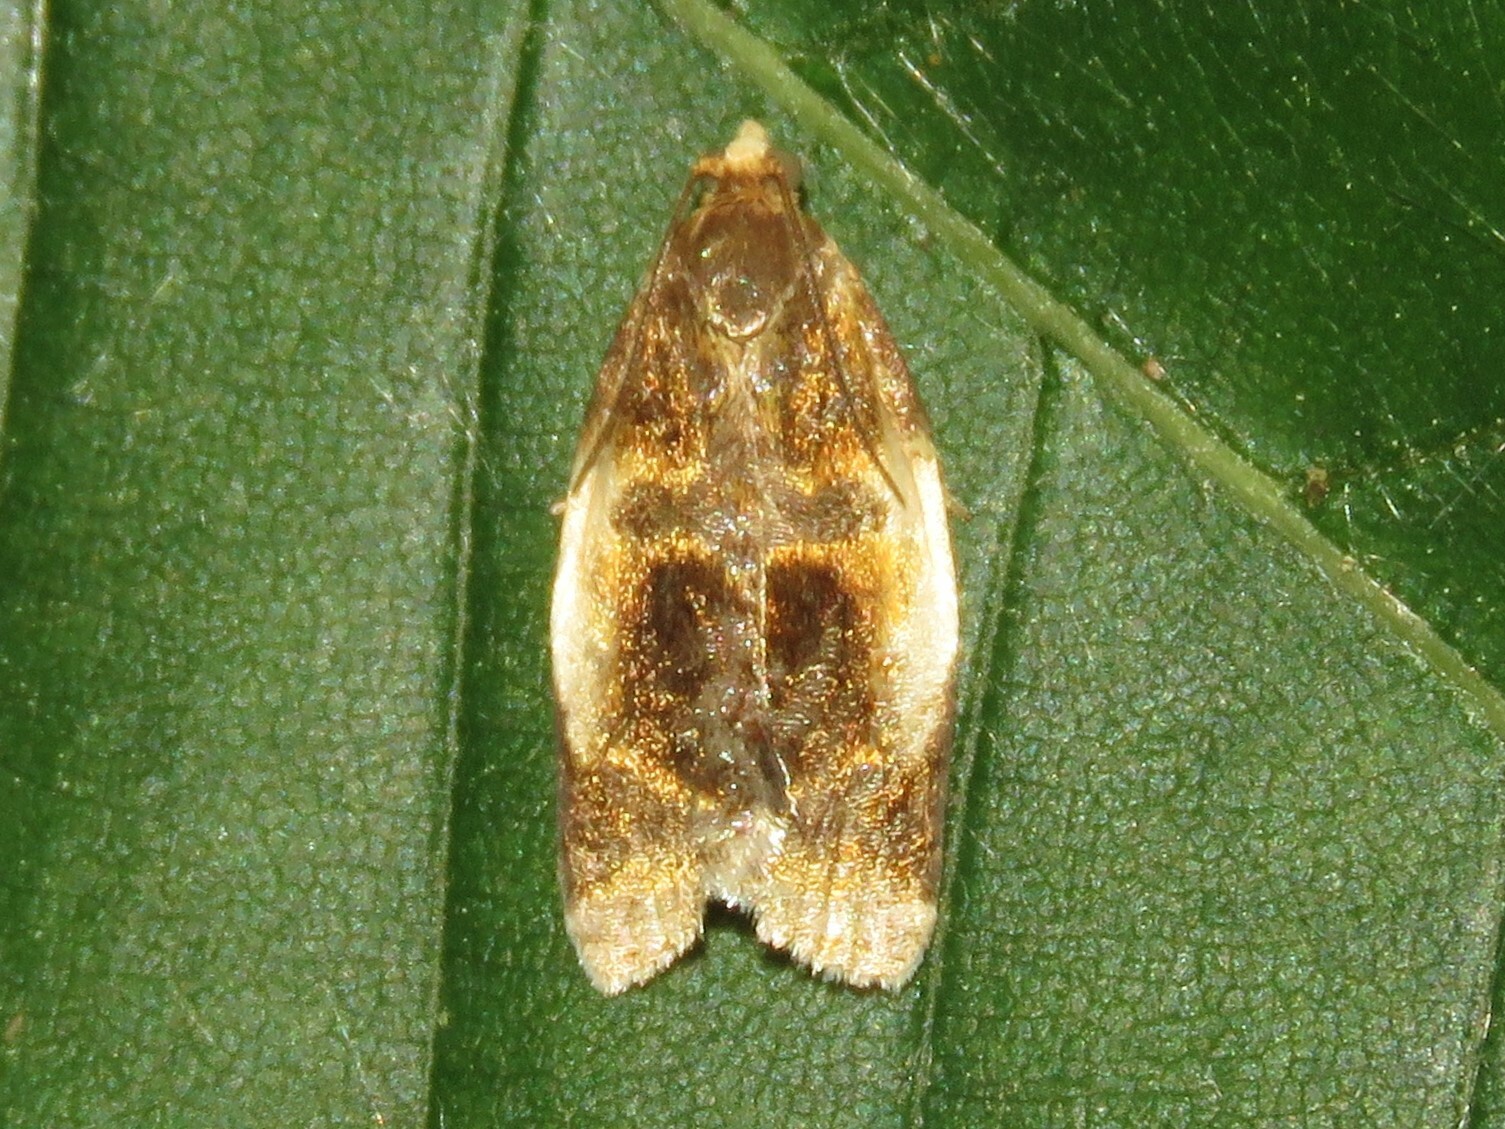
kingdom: Animalia
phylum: Arthropoda
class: Insecta
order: Lepidoptera
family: Tortricidae
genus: Clepsis
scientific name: Clepsis melaleucanus
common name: American apple tortrix
